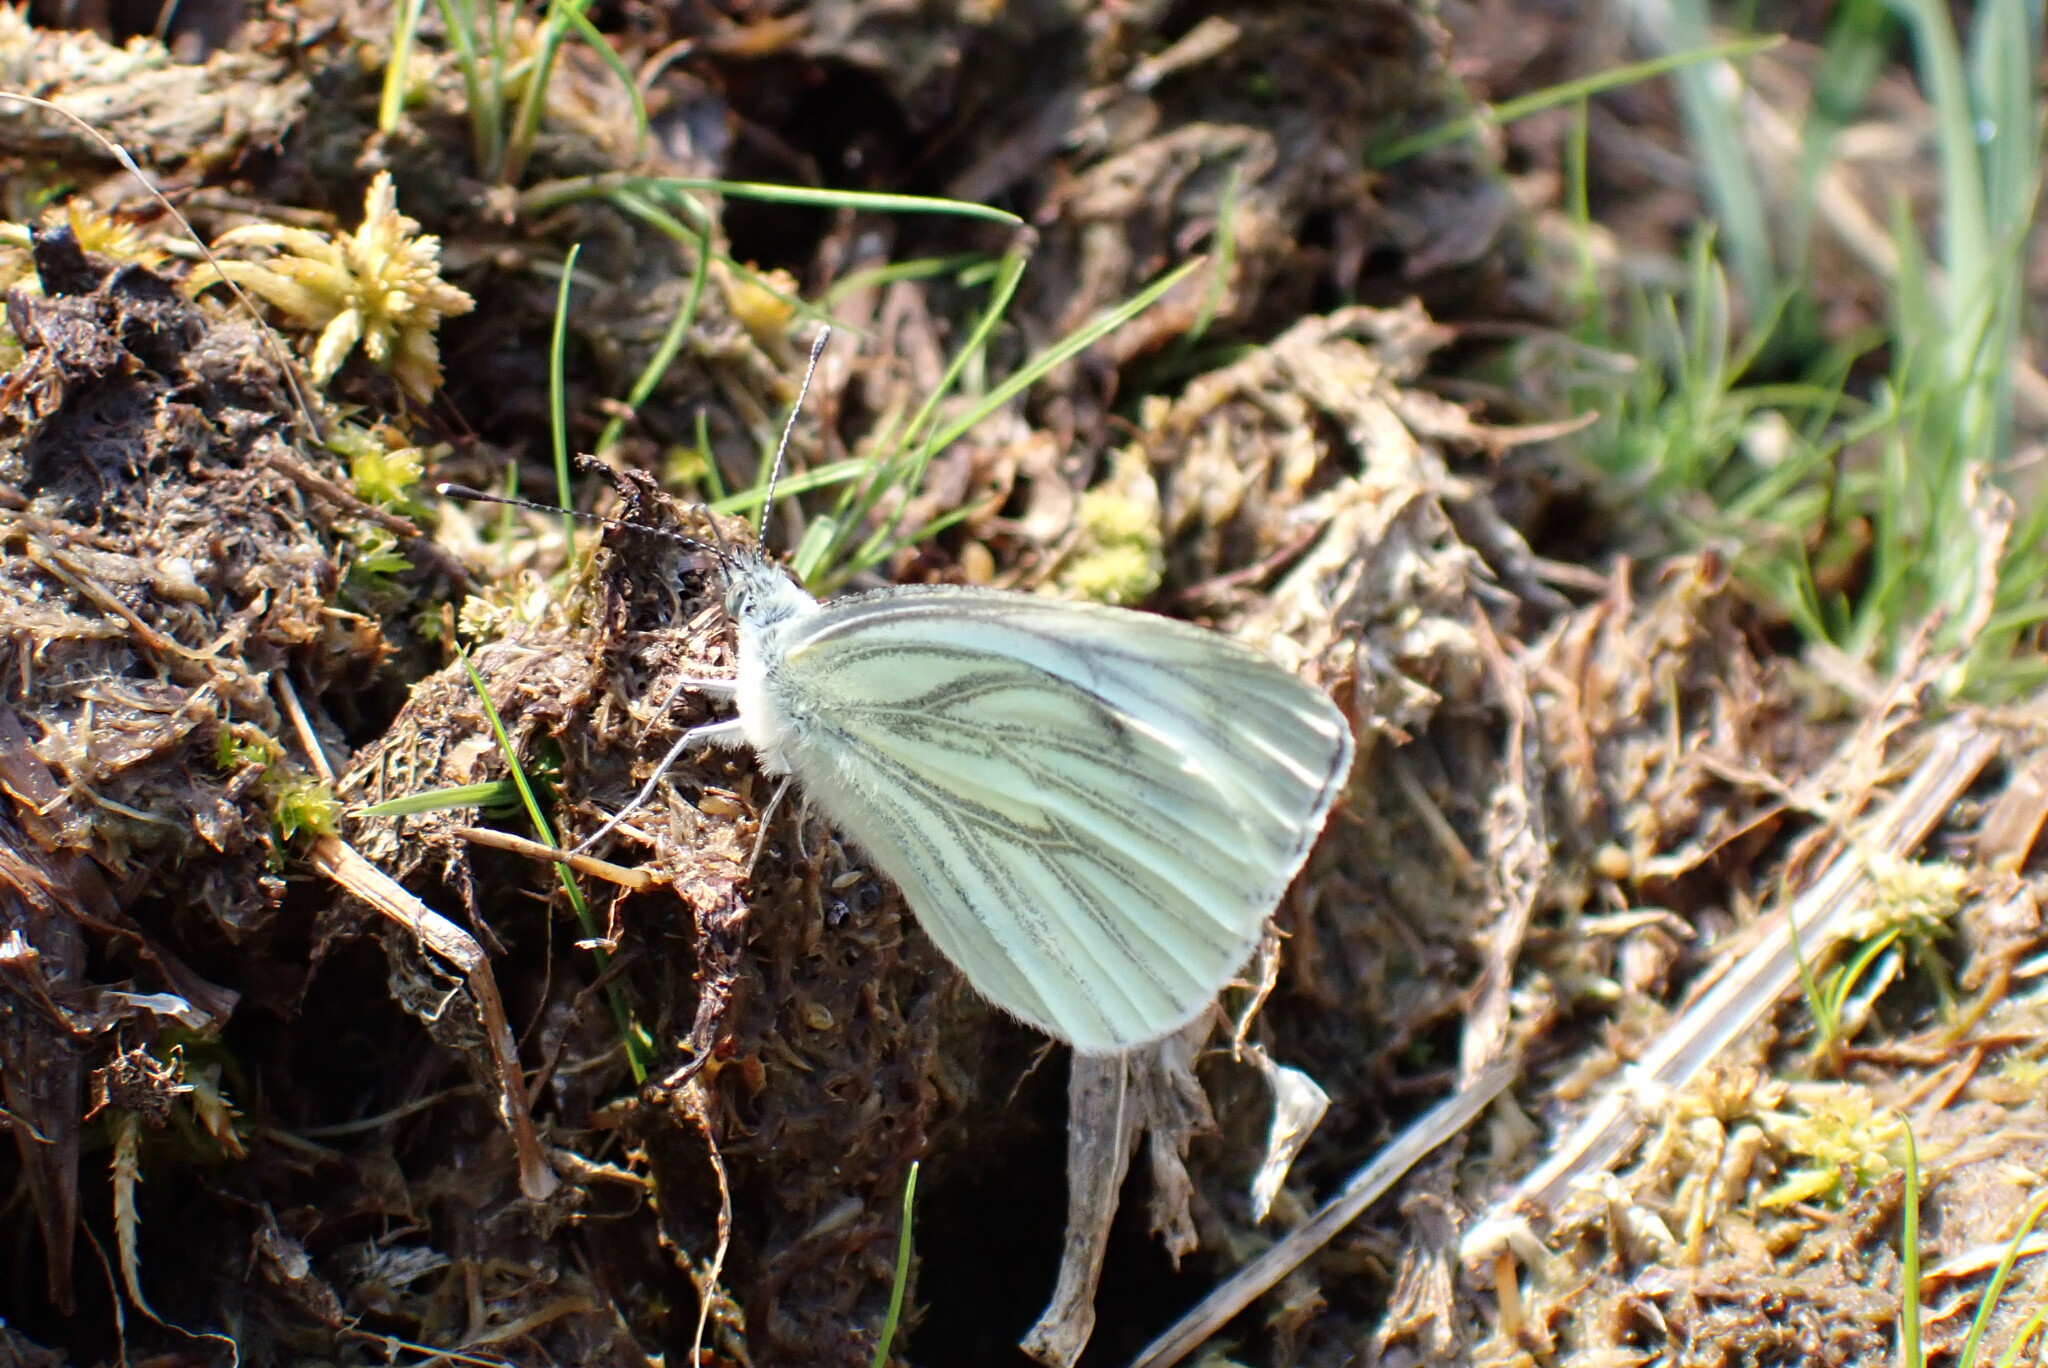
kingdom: Animalia
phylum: Arthropoda
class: Insecta
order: Lepidoptera
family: Pieridae
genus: Pieris
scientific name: Pieris napi
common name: Green-veined white
